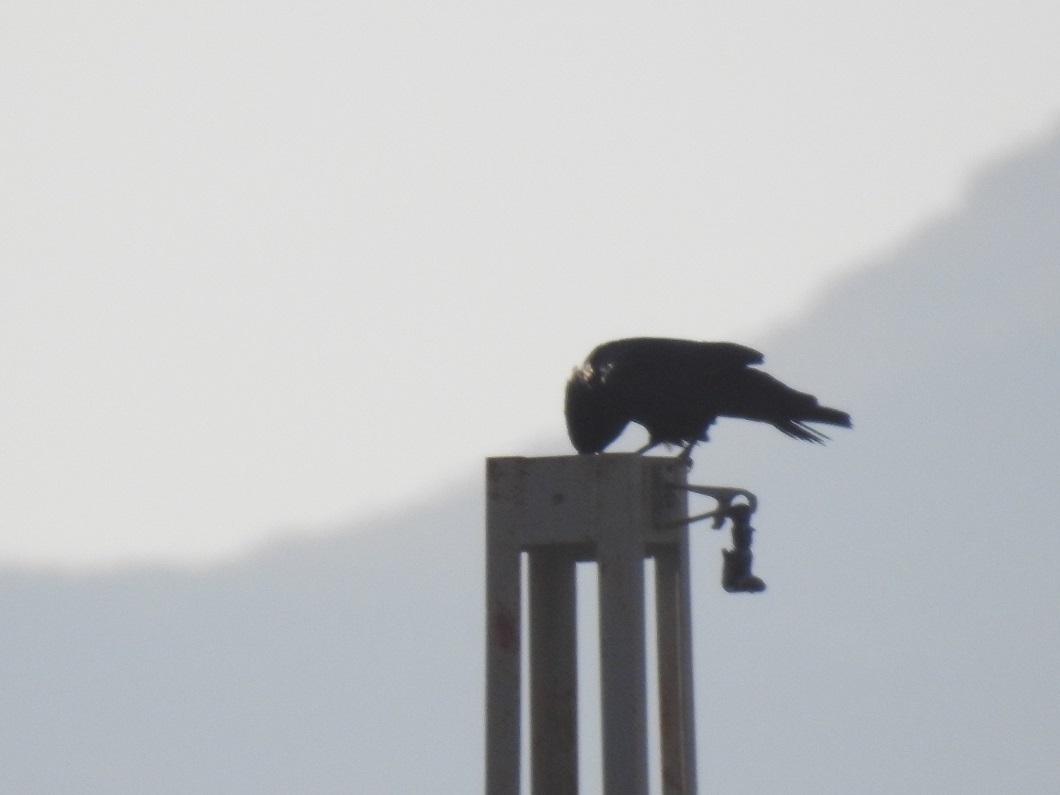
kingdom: Animalia
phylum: Chordata
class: Aves
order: Passeriformes
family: Corvidae
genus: Corvus
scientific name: Corvus corax
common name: Common raven
